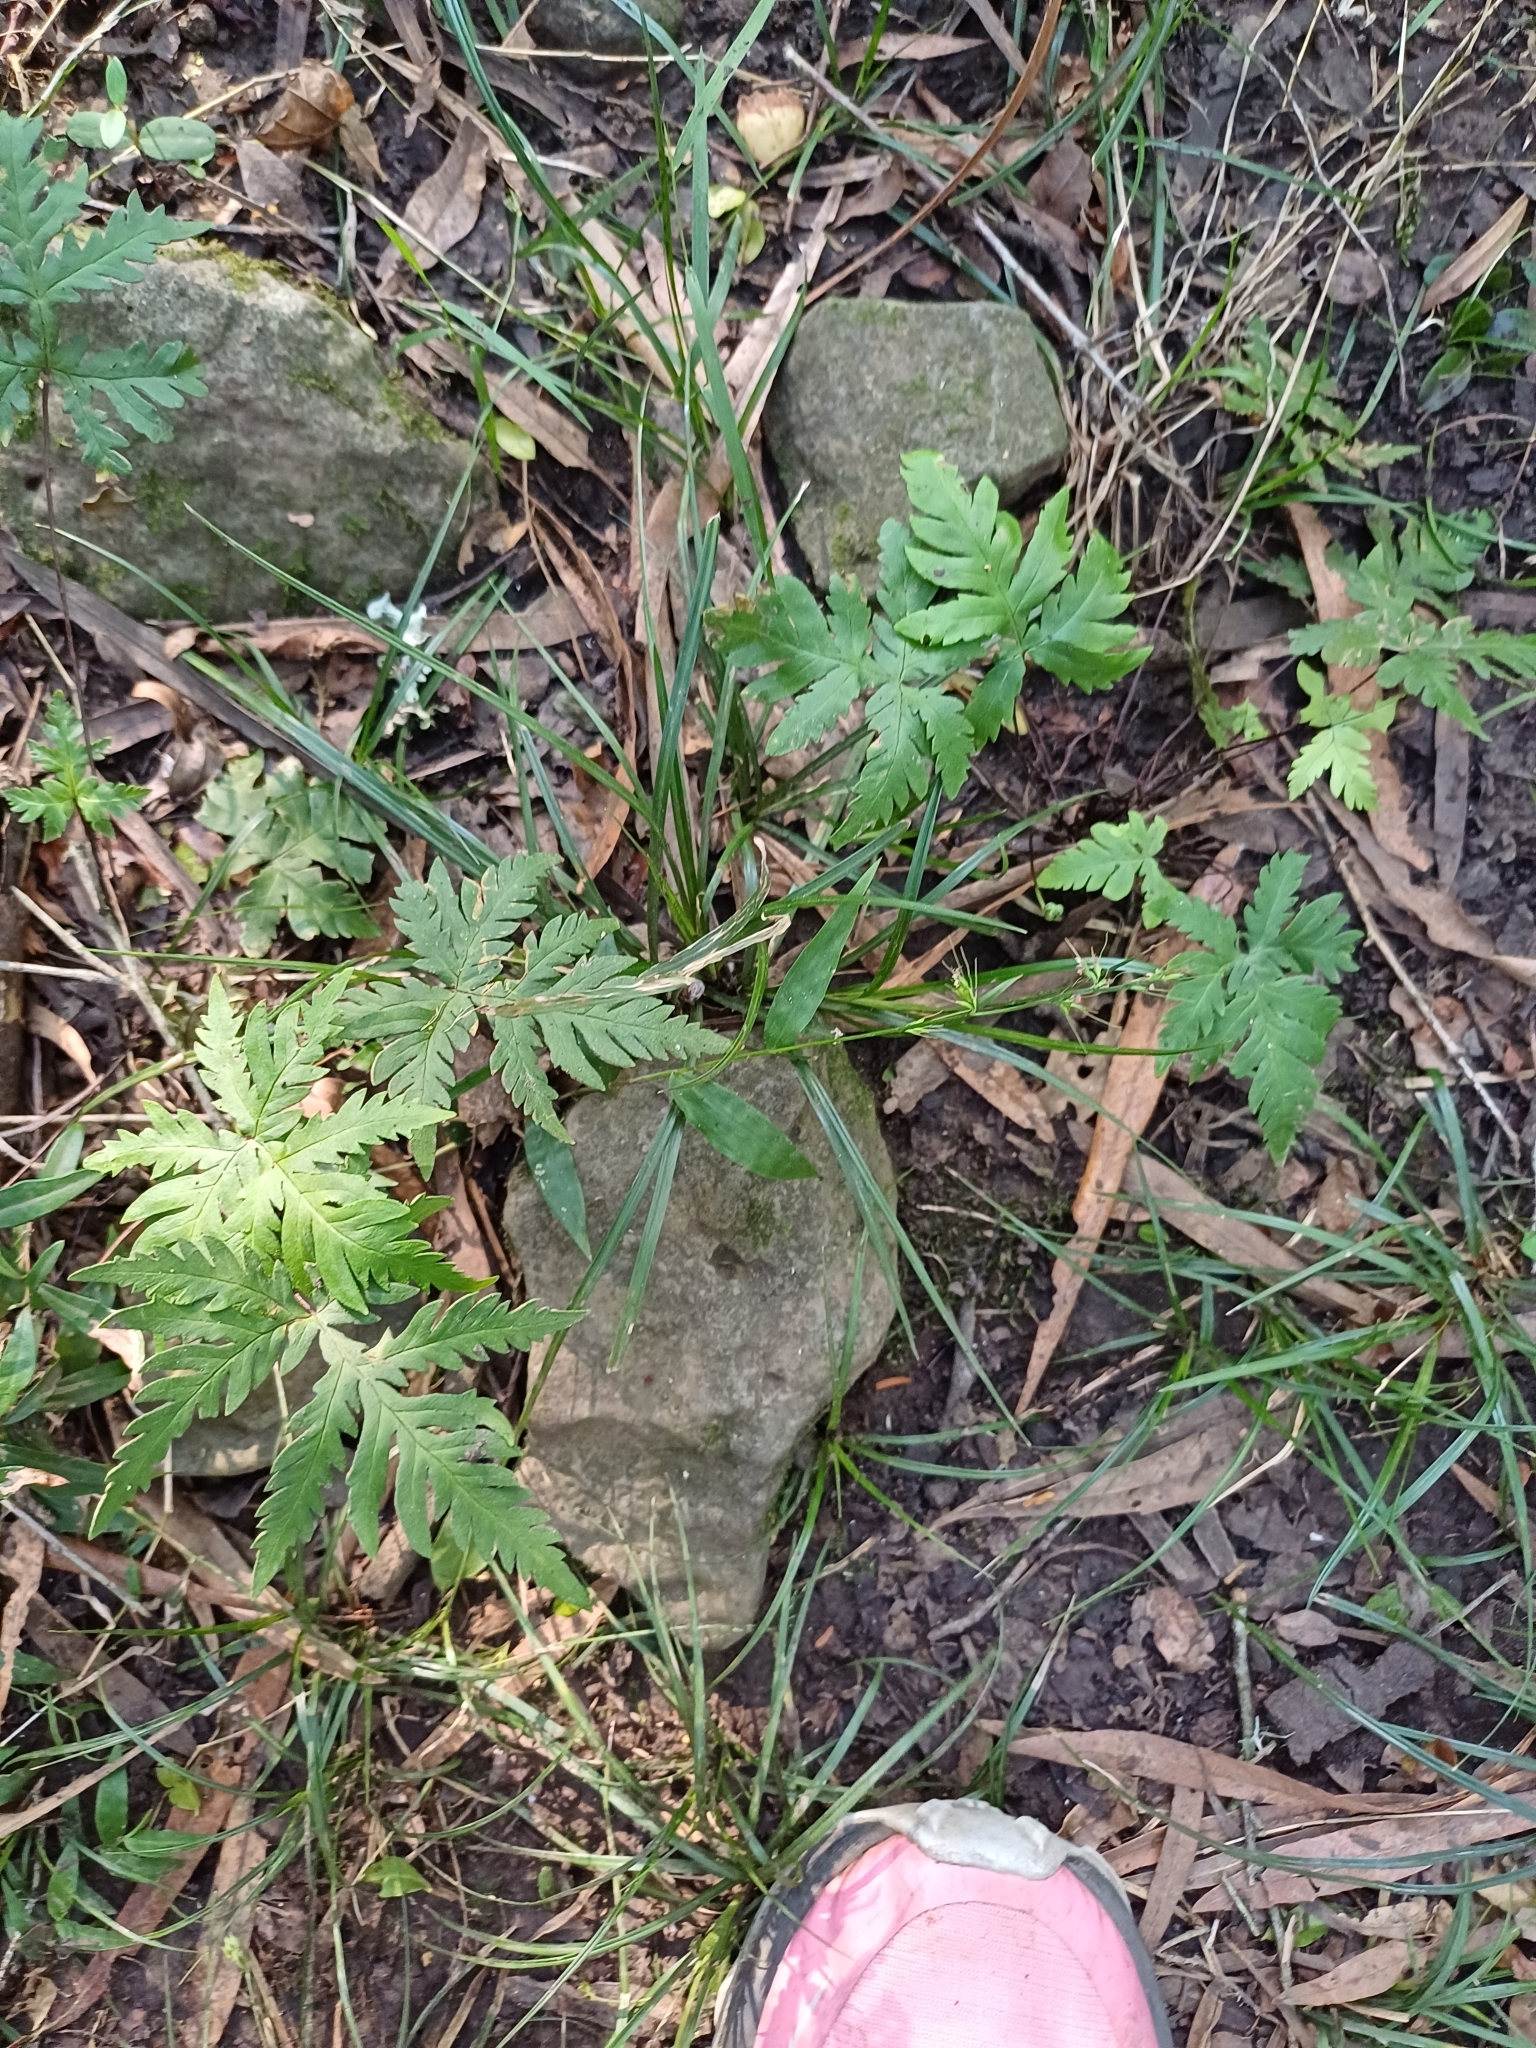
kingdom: Plantae
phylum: Tracheophyta
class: Polypodiopsida
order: Polypodiales
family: Pteridaceae
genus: Doryopteris
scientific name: Doryopteris concolor
